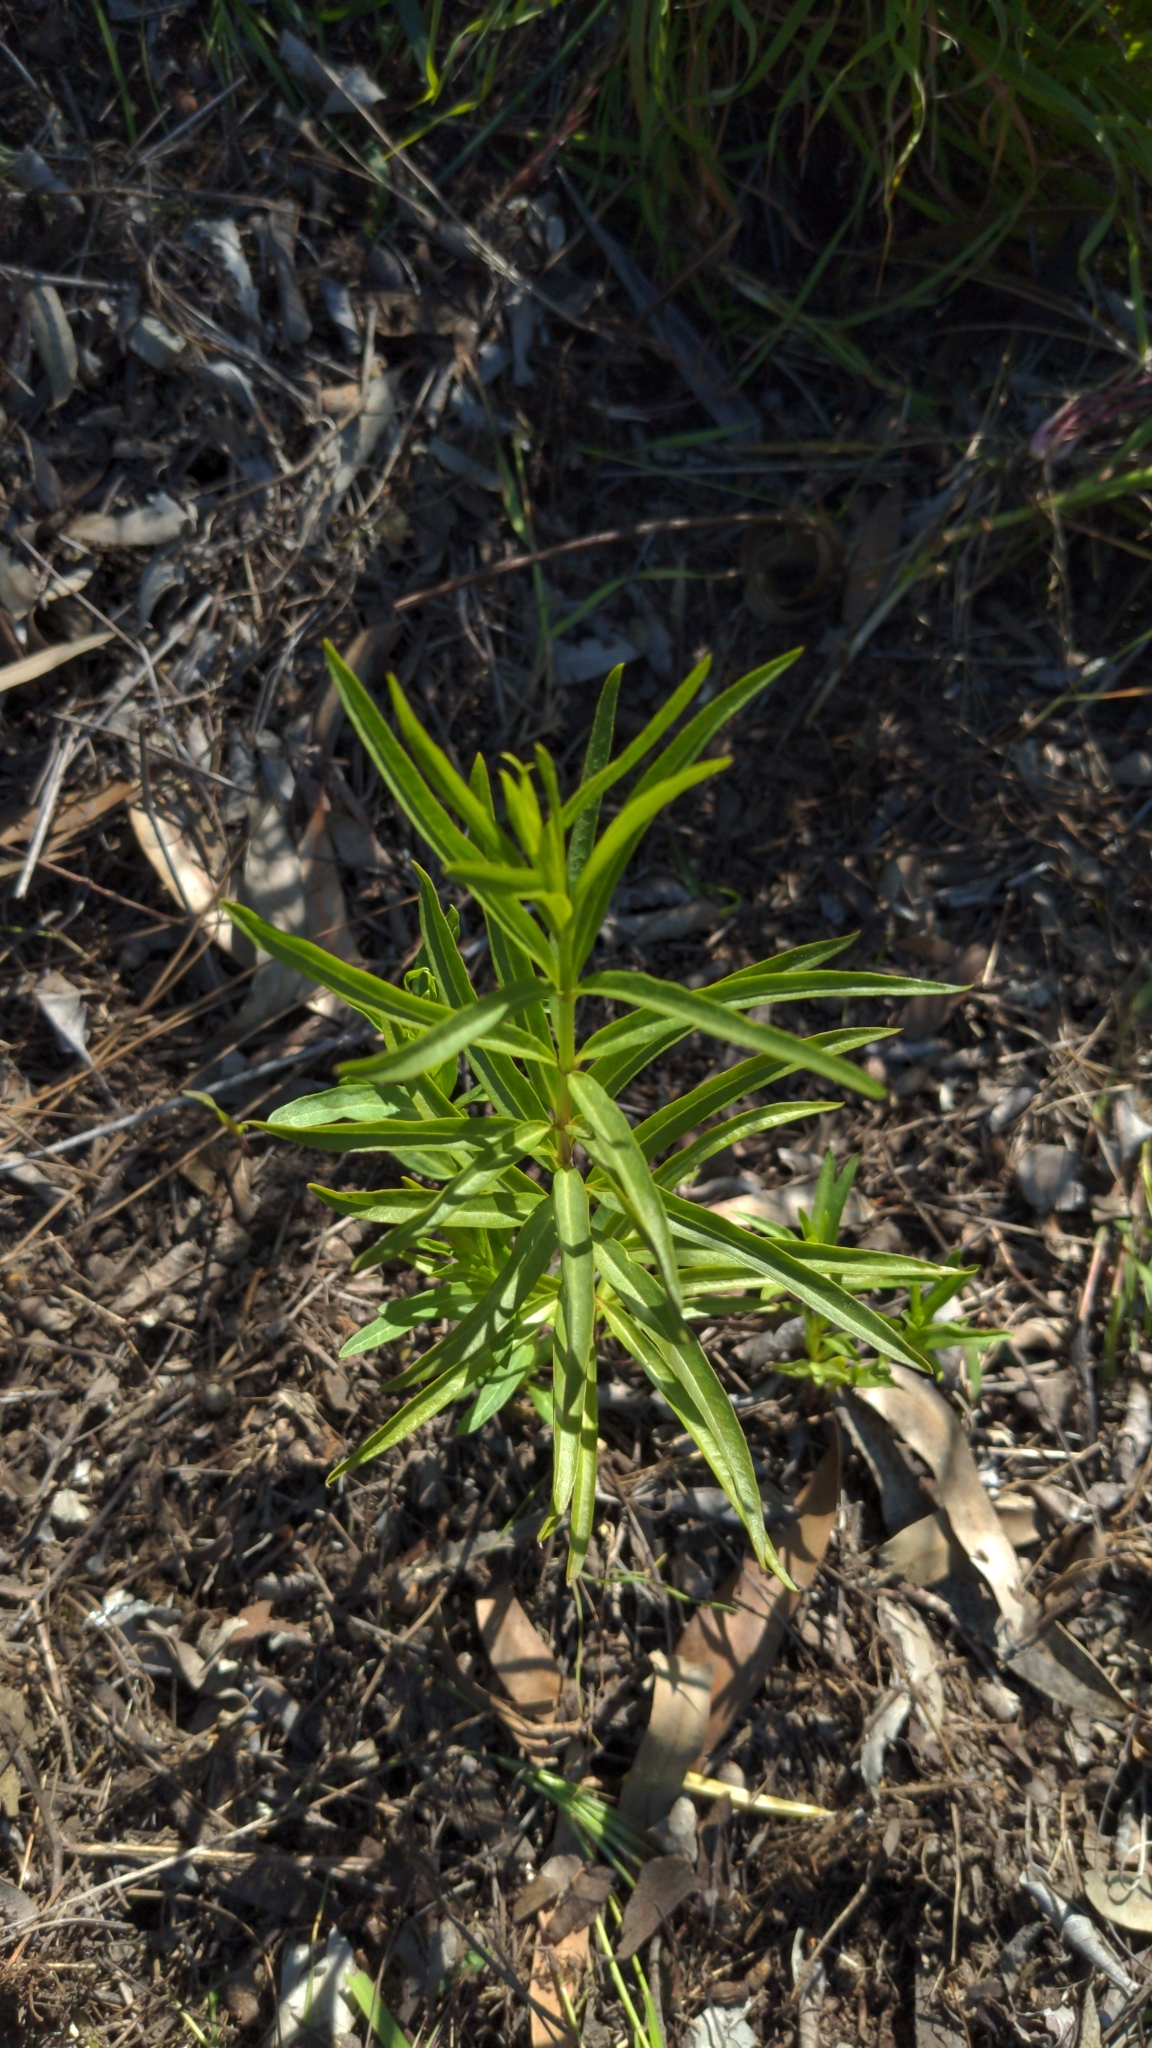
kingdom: Plantae
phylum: Tracheophyta
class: Magnoliopsida
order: Gentianales
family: Apocynaceae
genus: Asclepias
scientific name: Asclepias fascicularis
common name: Mexican milkweed
